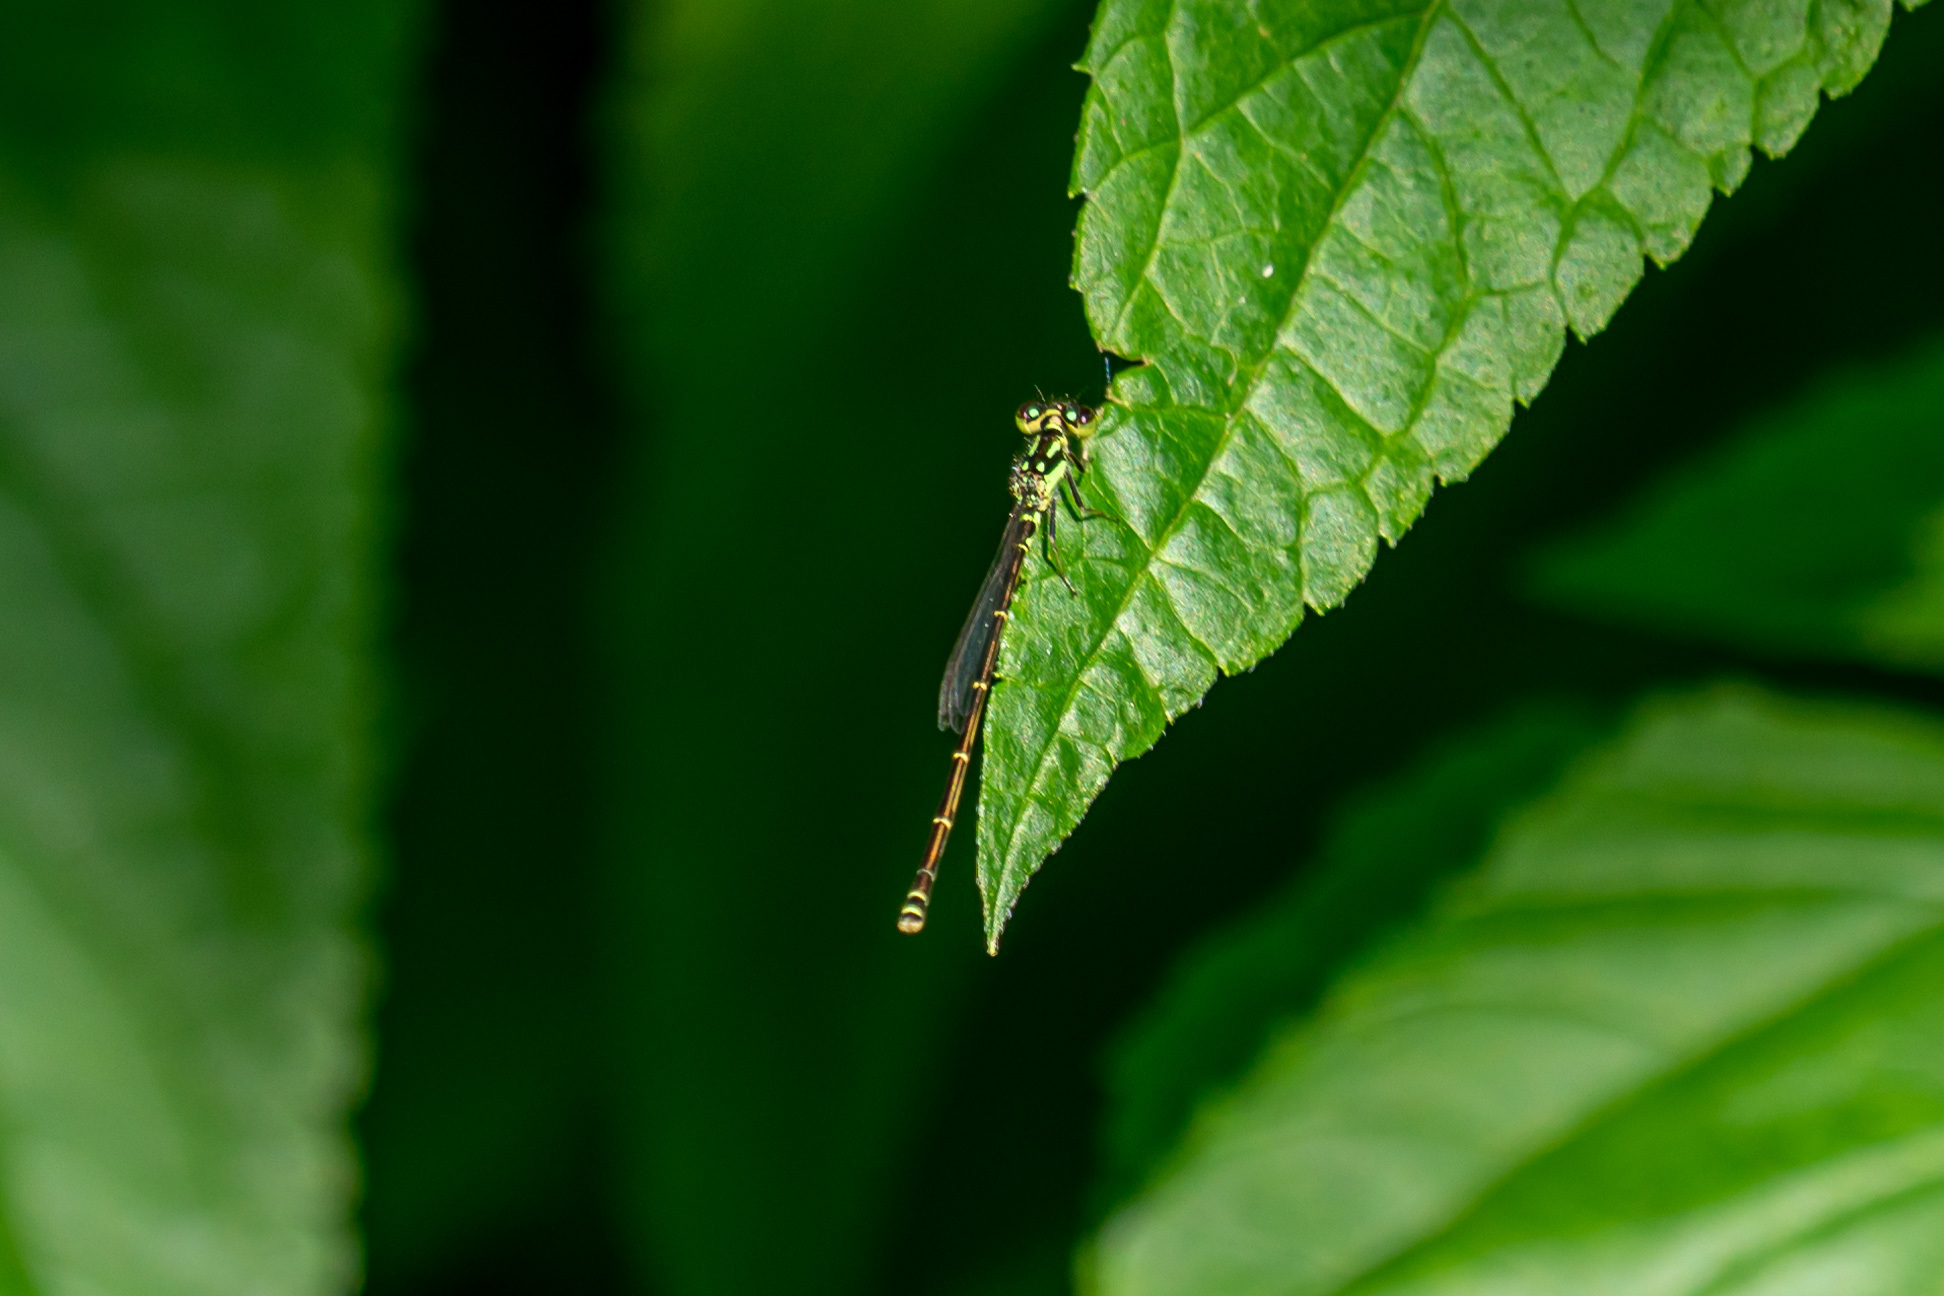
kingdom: Animalia
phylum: Arthropoda
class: Insecta
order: Odonata
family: Coenagrionidae
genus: Ischnura
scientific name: Ischnura posita
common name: Fragile forktail
